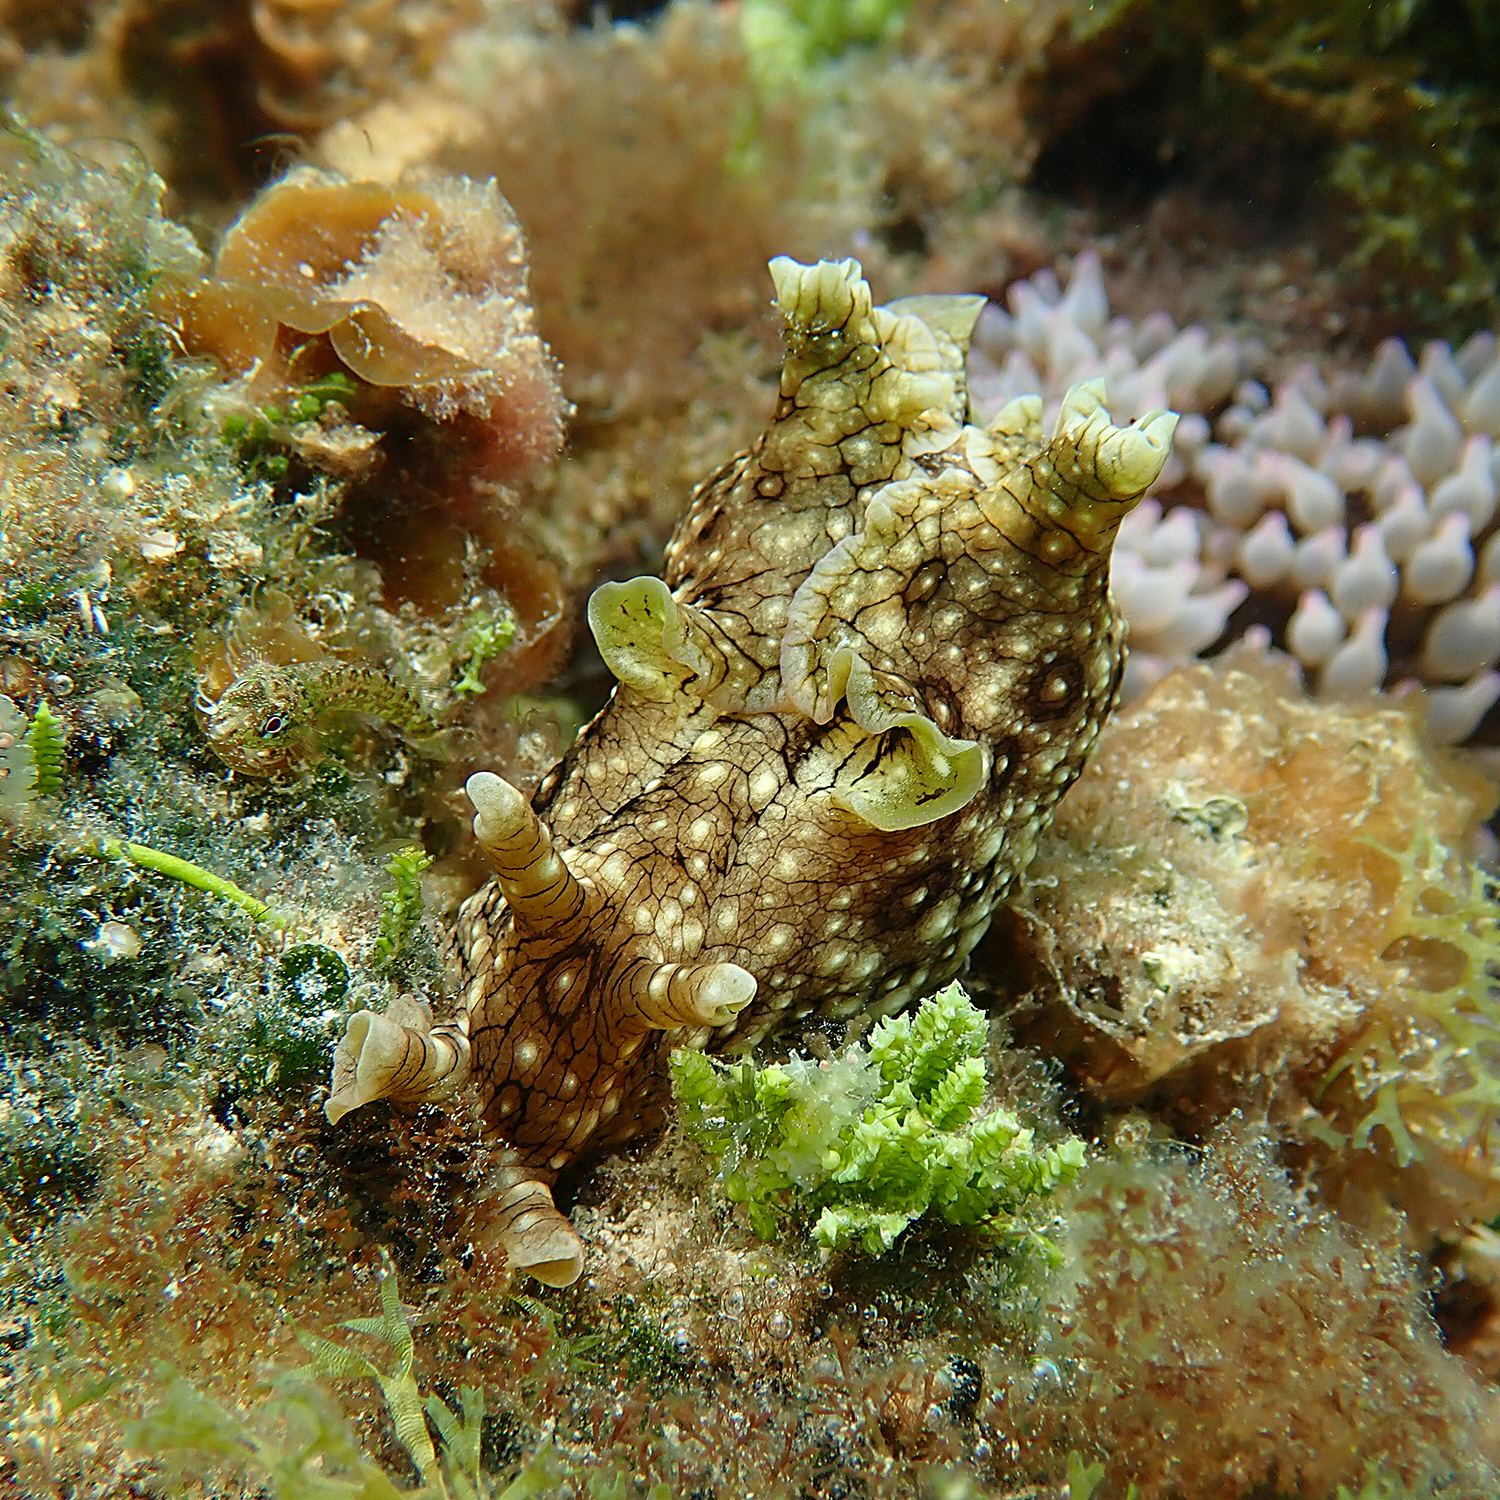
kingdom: Animalia
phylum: Mollusca
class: Gastropoda
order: Aplysiida
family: Aplysiidae
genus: Aplysia
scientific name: Aplysia argus
